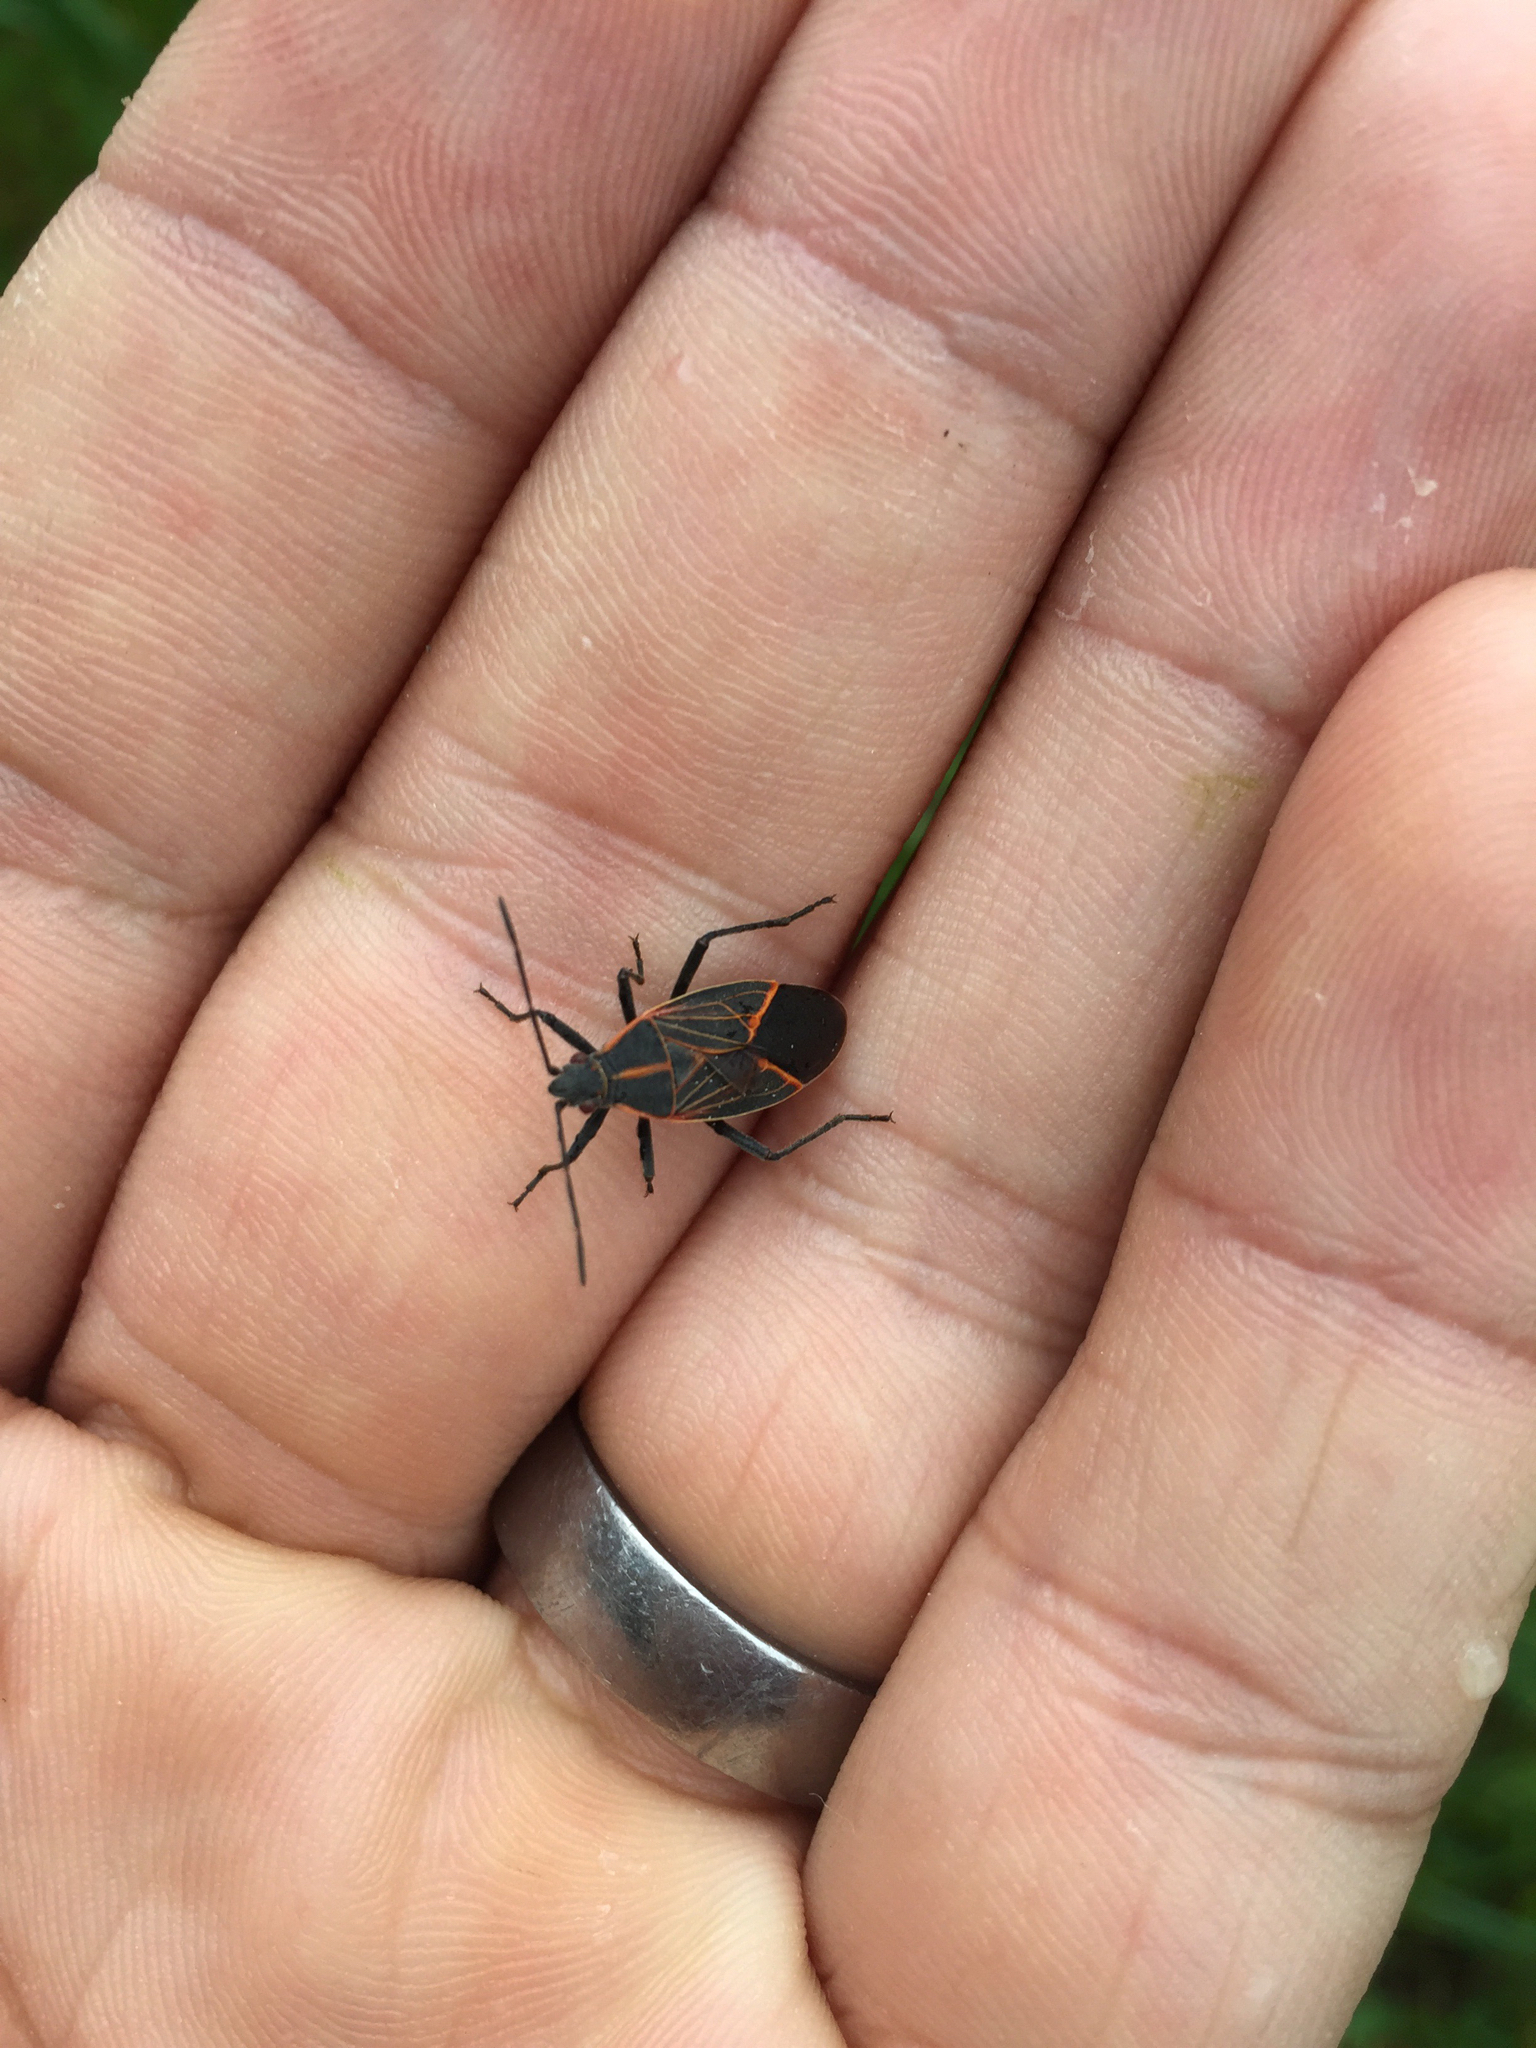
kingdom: Animalia
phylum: Arthropoda
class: Insecta
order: Hemiptera
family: Rhopalidae
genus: Boisea
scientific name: Boisea rubrolineata
